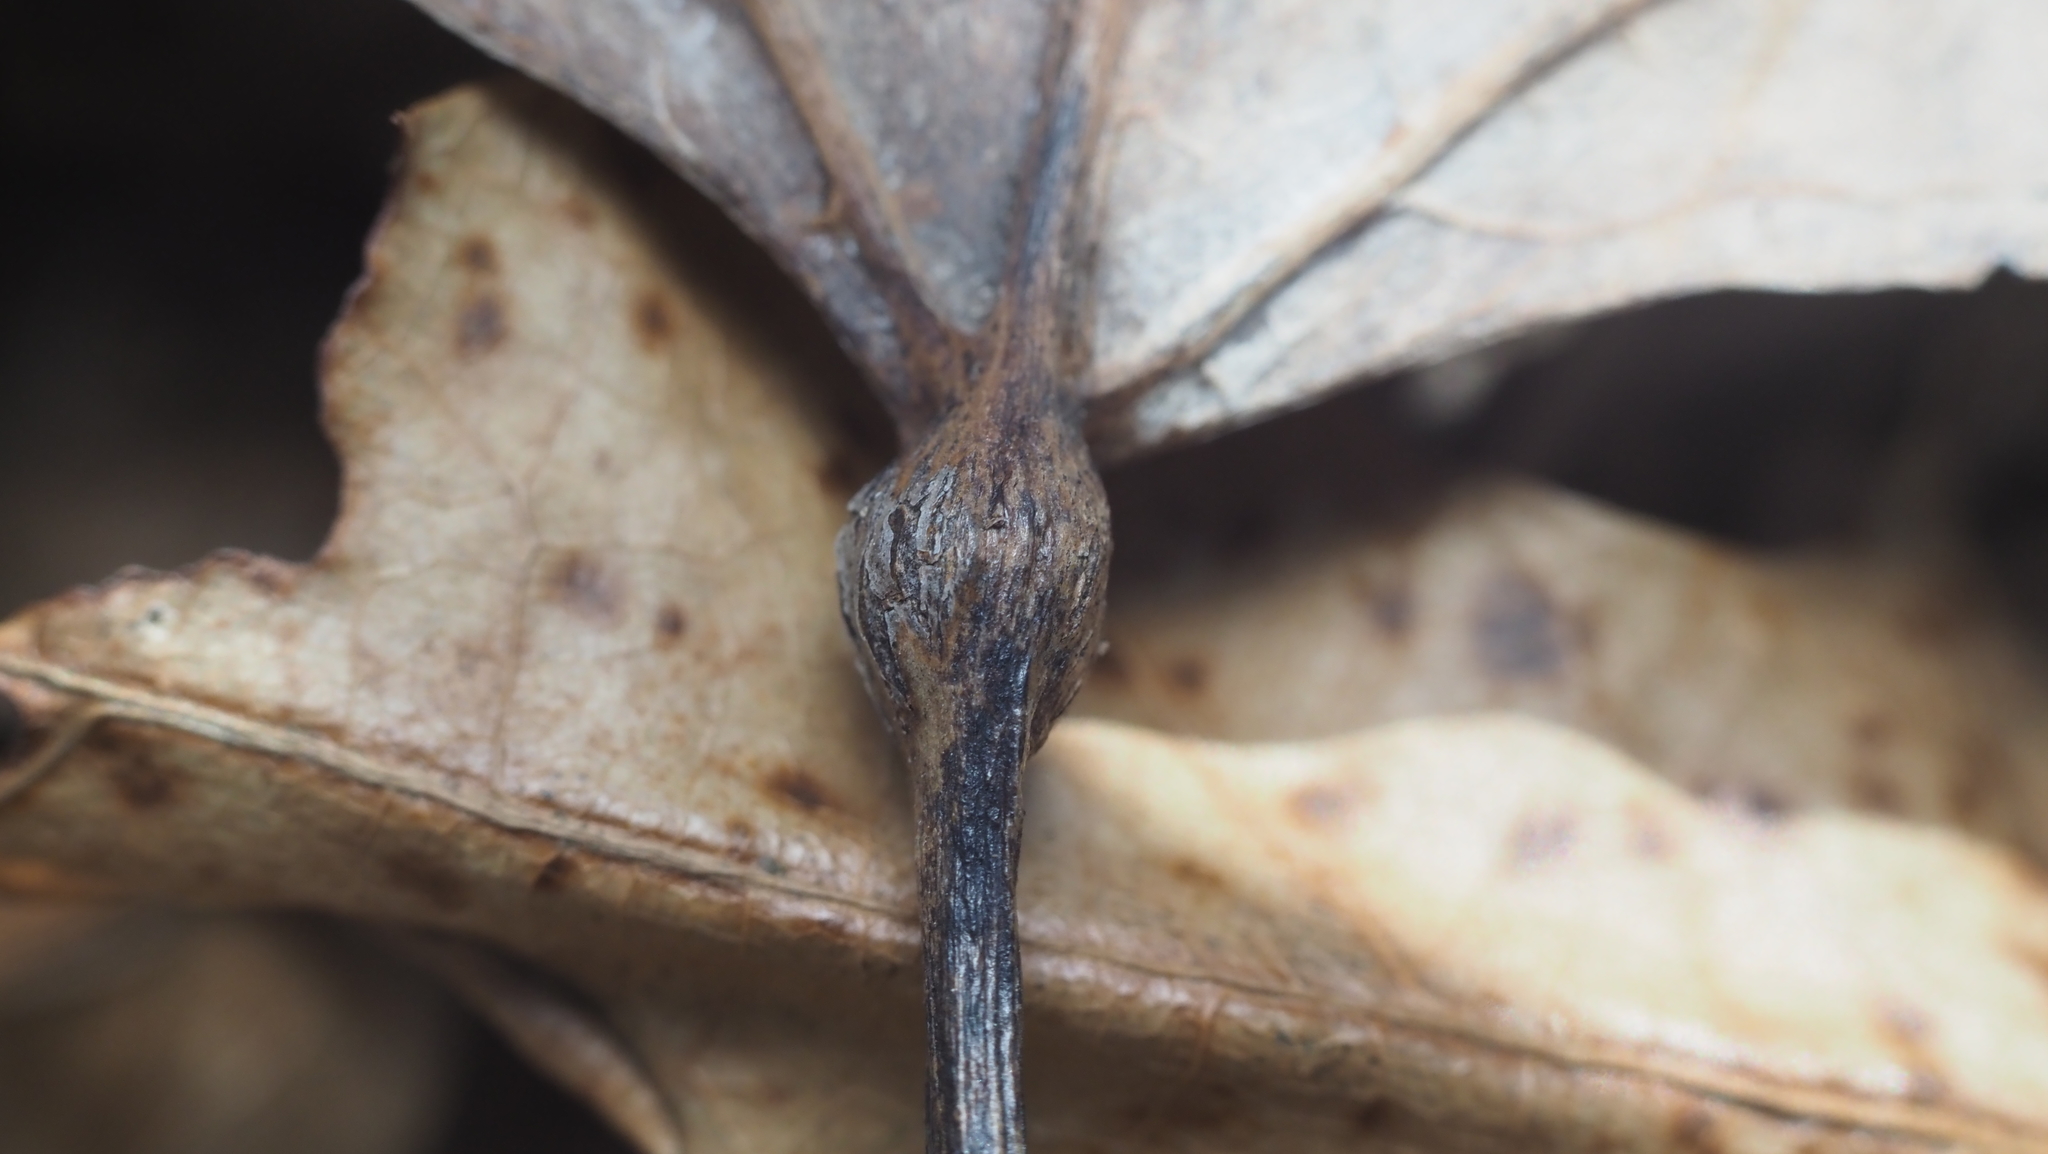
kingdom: Animalia
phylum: Arthropoda
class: Insecta
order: Lepidoptera
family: Nepticulidae
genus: Ectoedemia
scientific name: Ectoedemia populella
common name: Aspen petiole gall moth
